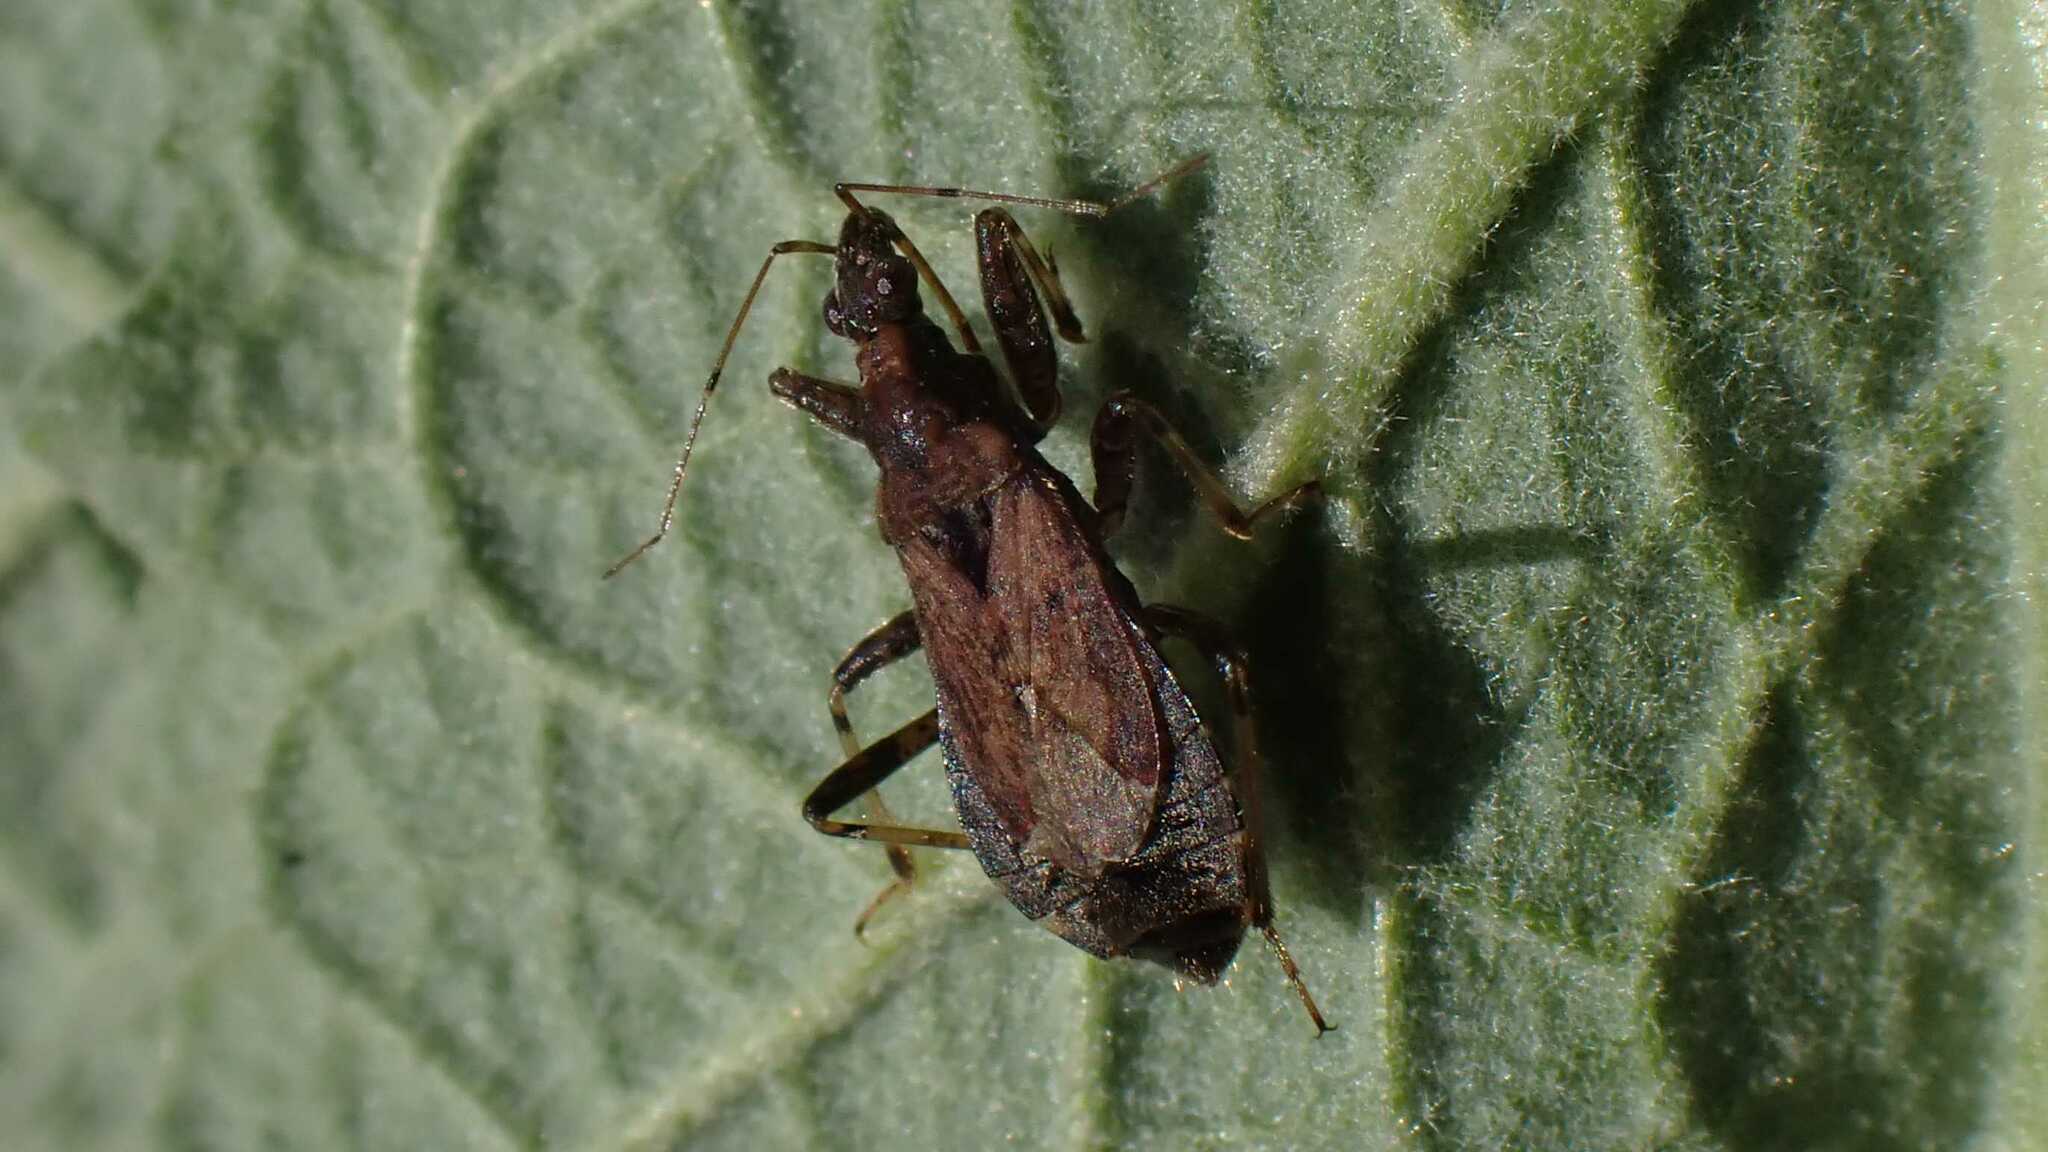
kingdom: Animalia
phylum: Arthropoda
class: Insecta
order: Hemiptera
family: Nabidae
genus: Himacerus
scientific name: Himacerus mirmicoides
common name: Ant damsel bug
